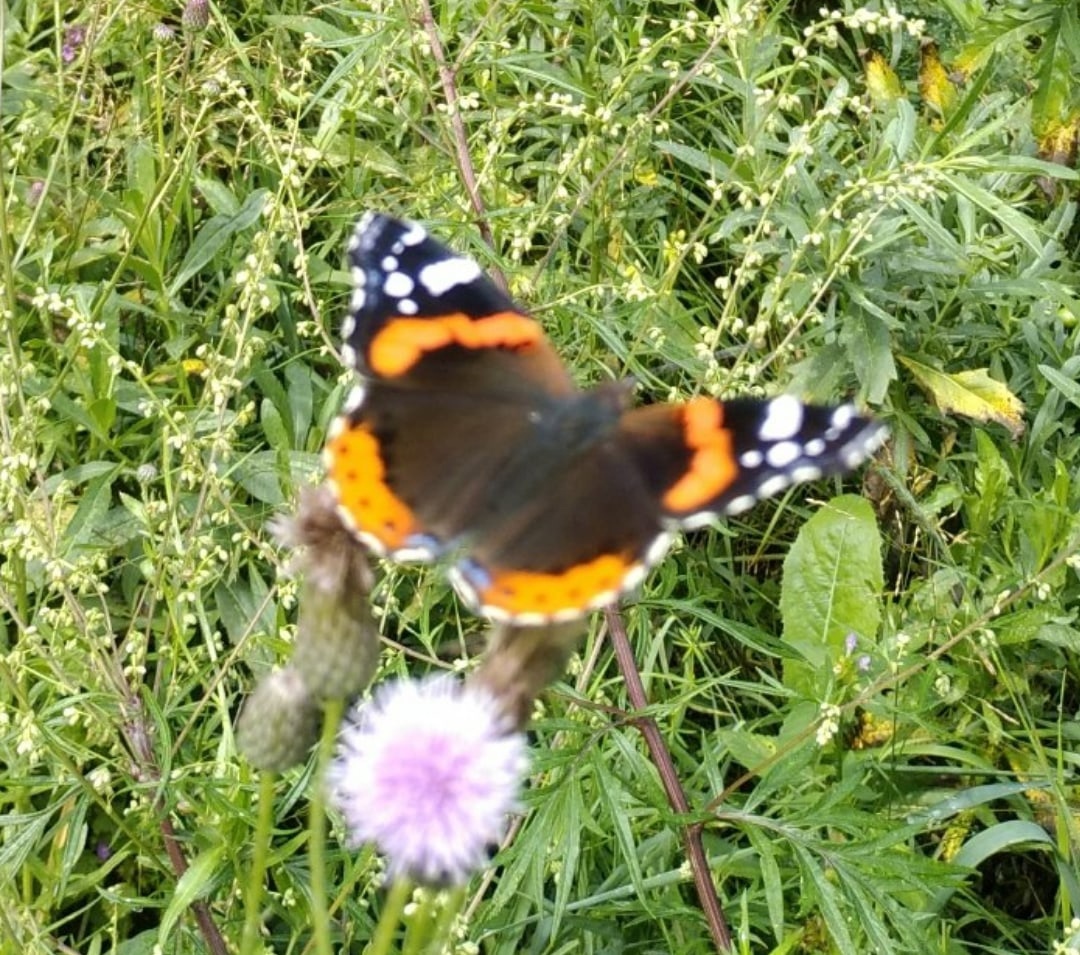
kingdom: Animalia
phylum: Arthropoda
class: Insecta
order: Lepidoptera
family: Nymphalidae
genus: Vanessa
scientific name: Vanessa atalanta
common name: Red admiral
